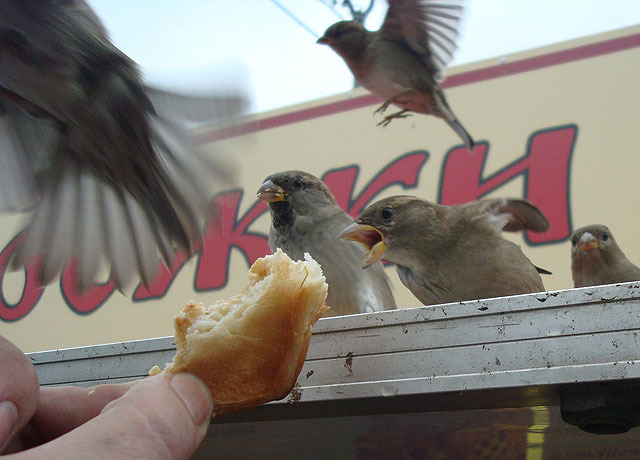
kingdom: Animalia
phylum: Chordata
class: Aves
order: Passeriformes
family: Passeridae
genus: Passer
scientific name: Passer domesticus
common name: House sparrow
